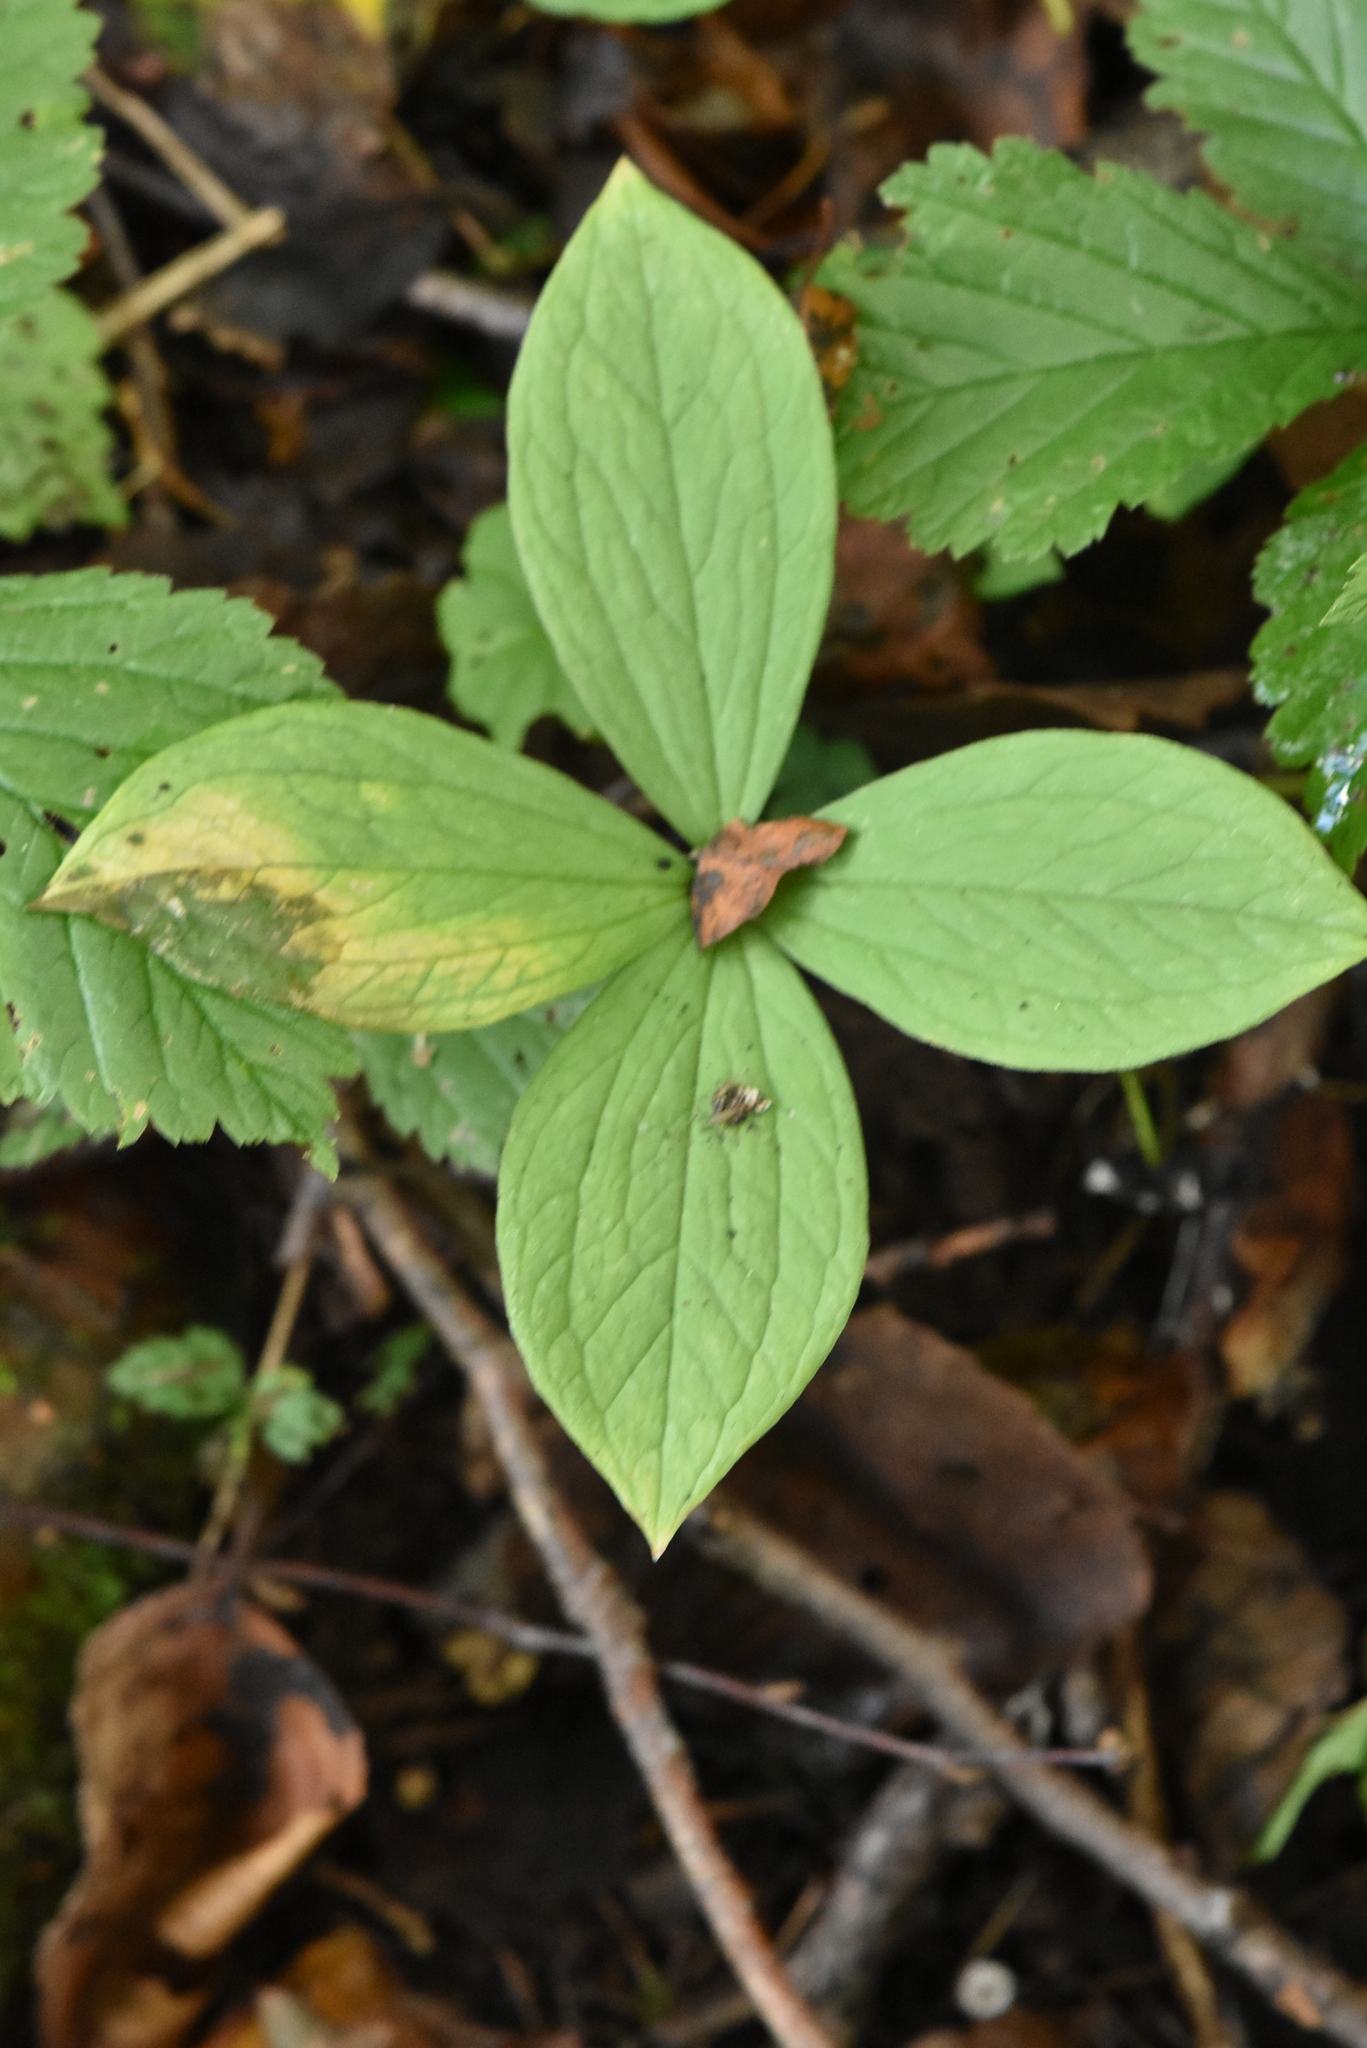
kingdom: Plantae
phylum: Tracheophyta
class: Liliopsida
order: Liliales
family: Melanthiaceae
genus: Paris
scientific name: Paris quadrifolia
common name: Herb-paris
